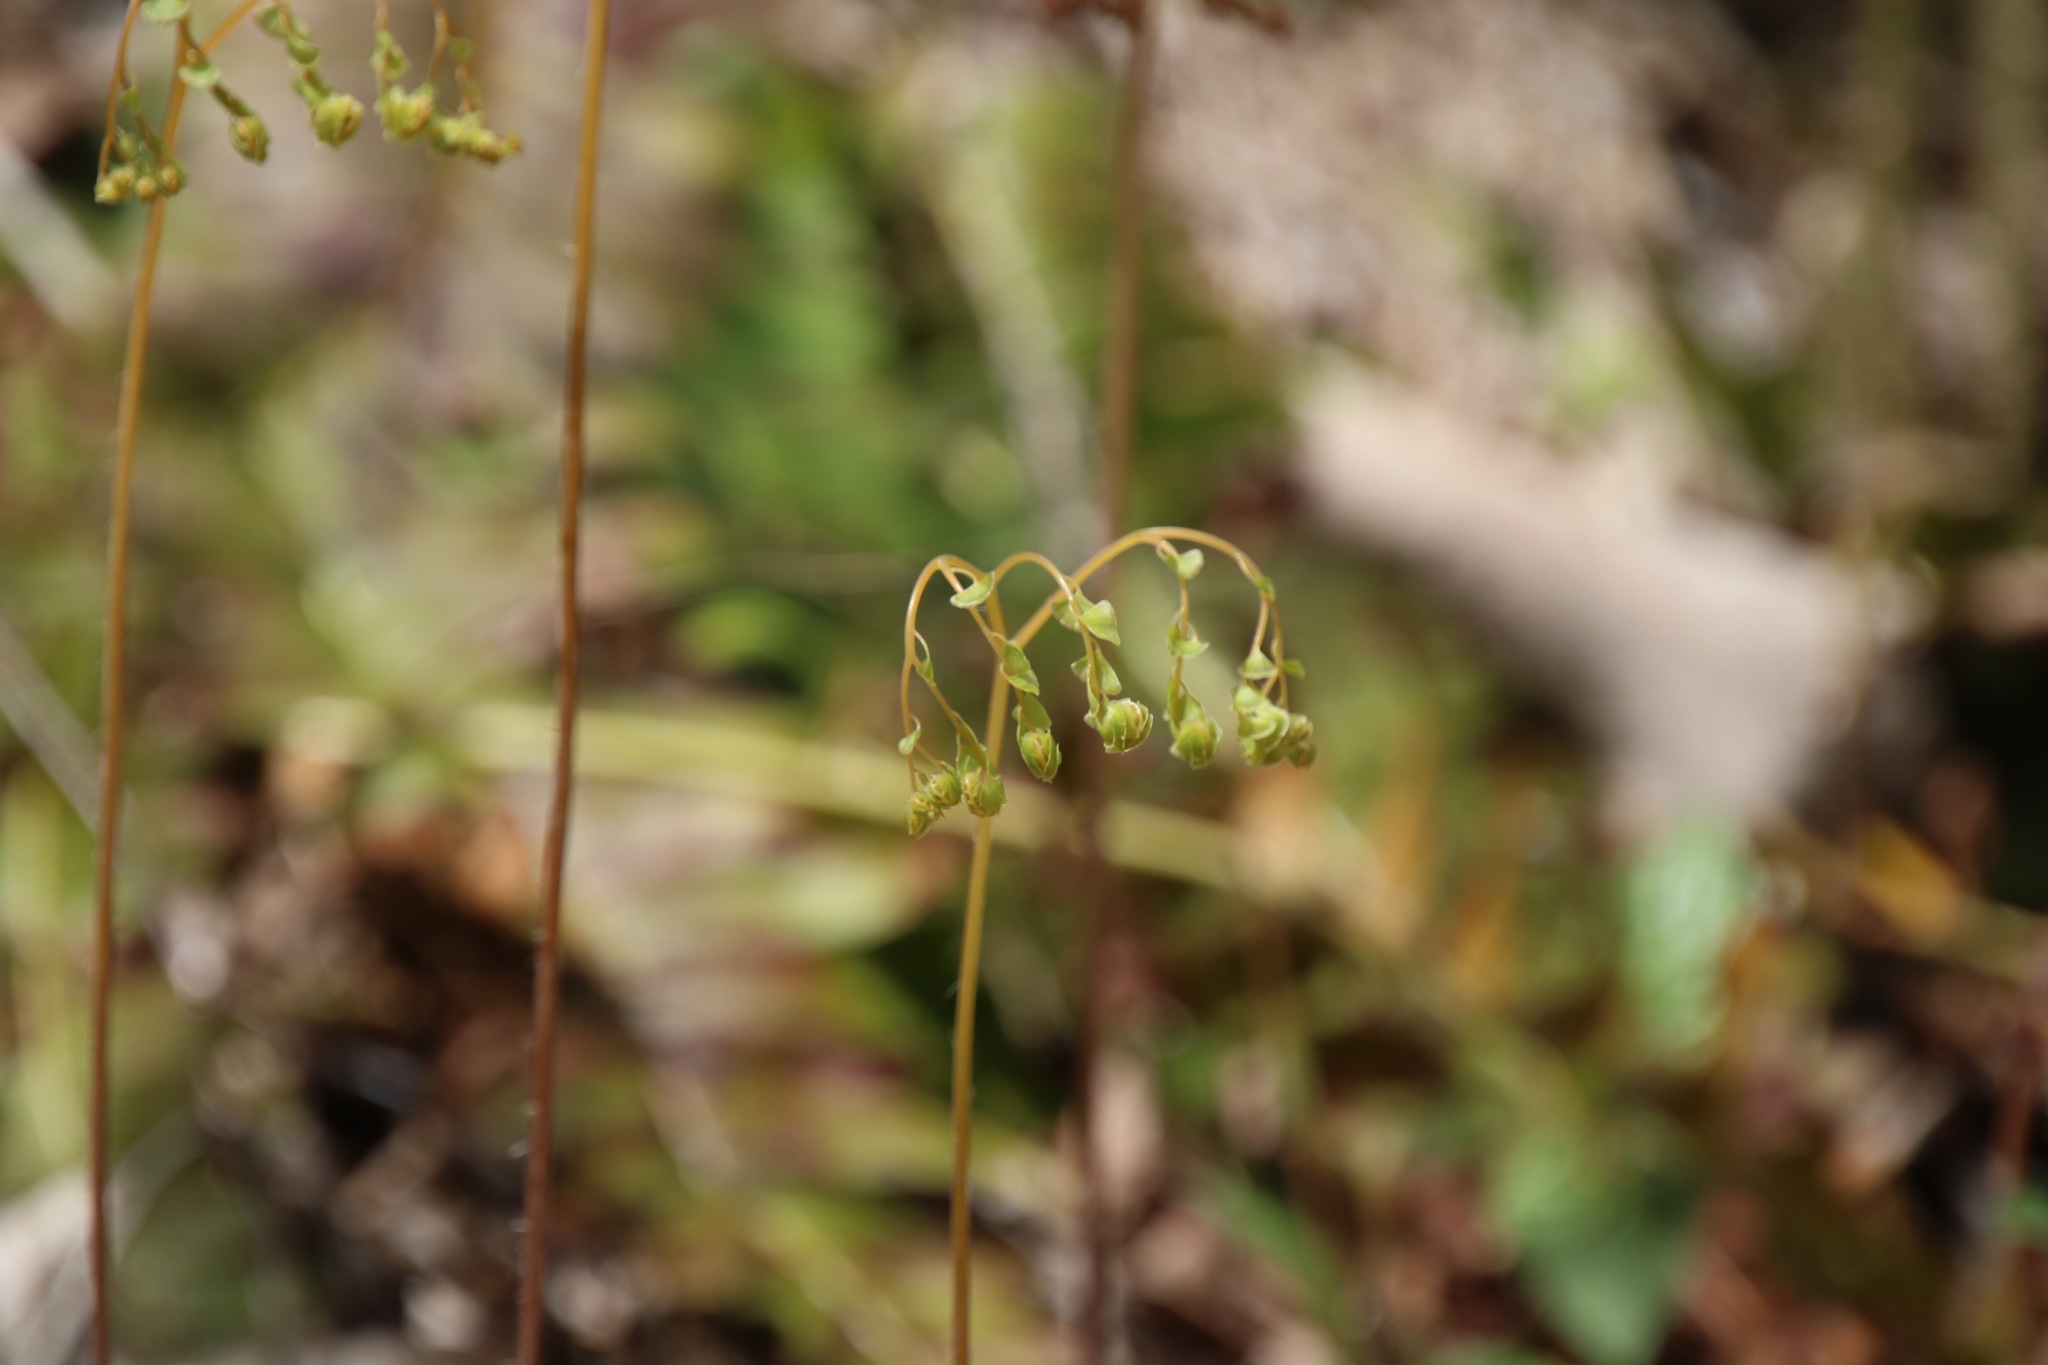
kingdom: Plantae
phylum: Tracheophyta
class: Polypodiopsida
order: Polypodiales
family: Pteridaceae
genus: Adiantum
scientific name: Adiantum pedatum
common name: Five-finger fern
